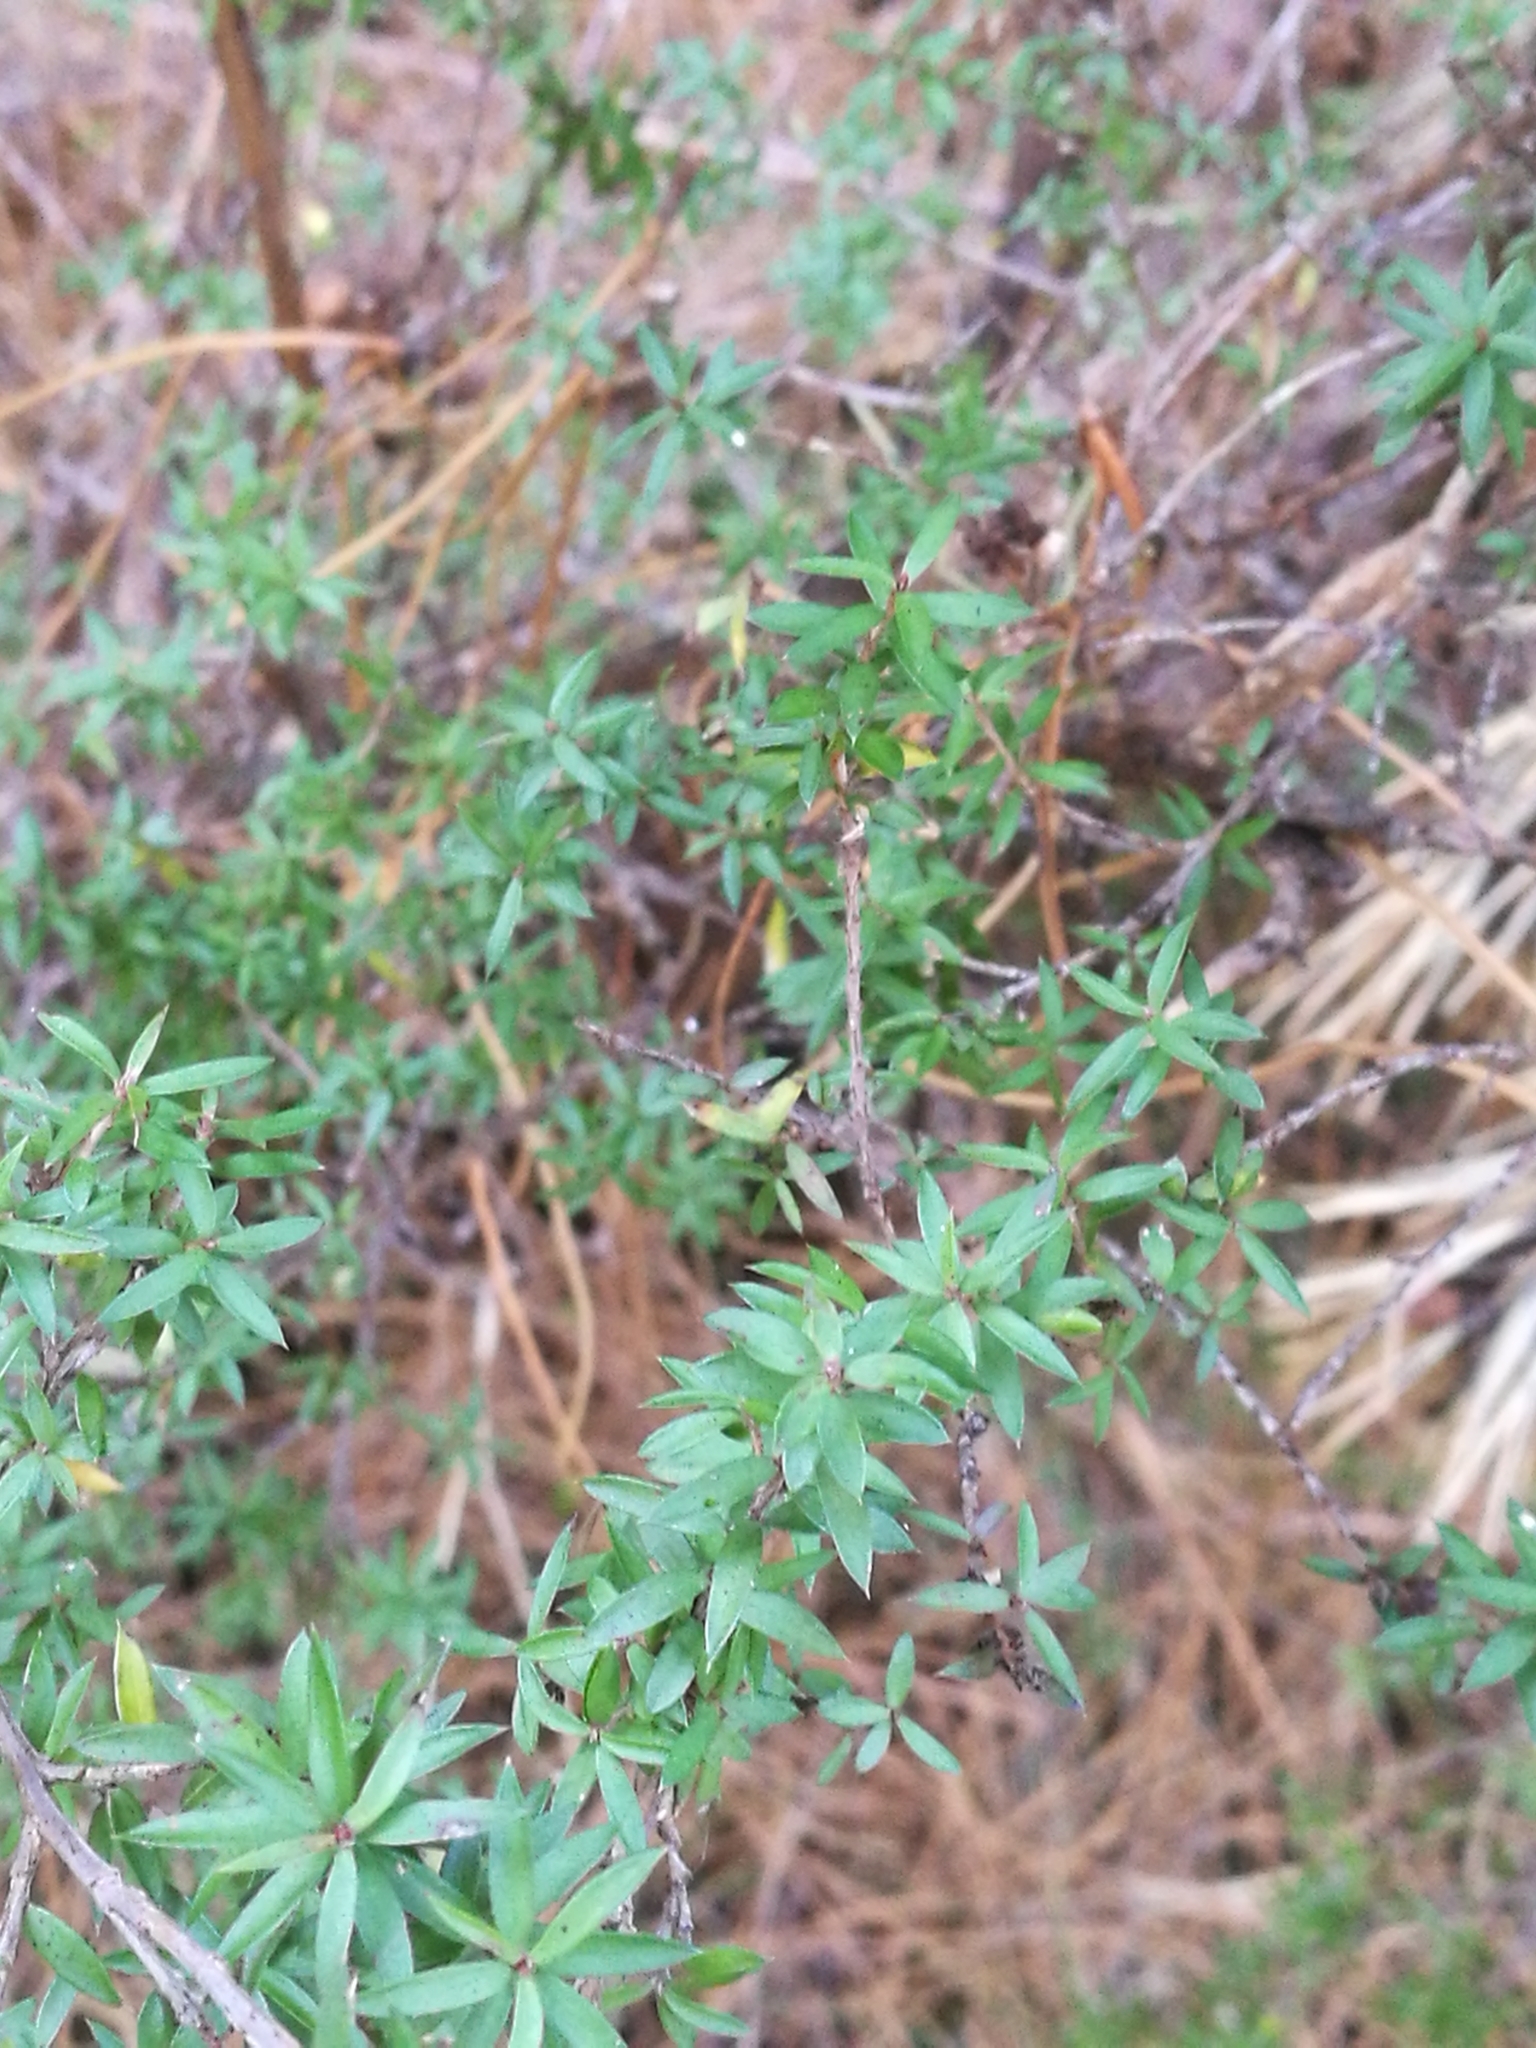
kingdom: Plantae
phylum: Tracheophyta
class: Pinopsida
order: Pinales
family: Podocarpaceae
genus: Podocarpus
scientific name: Podocarpus totara
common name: Totara
